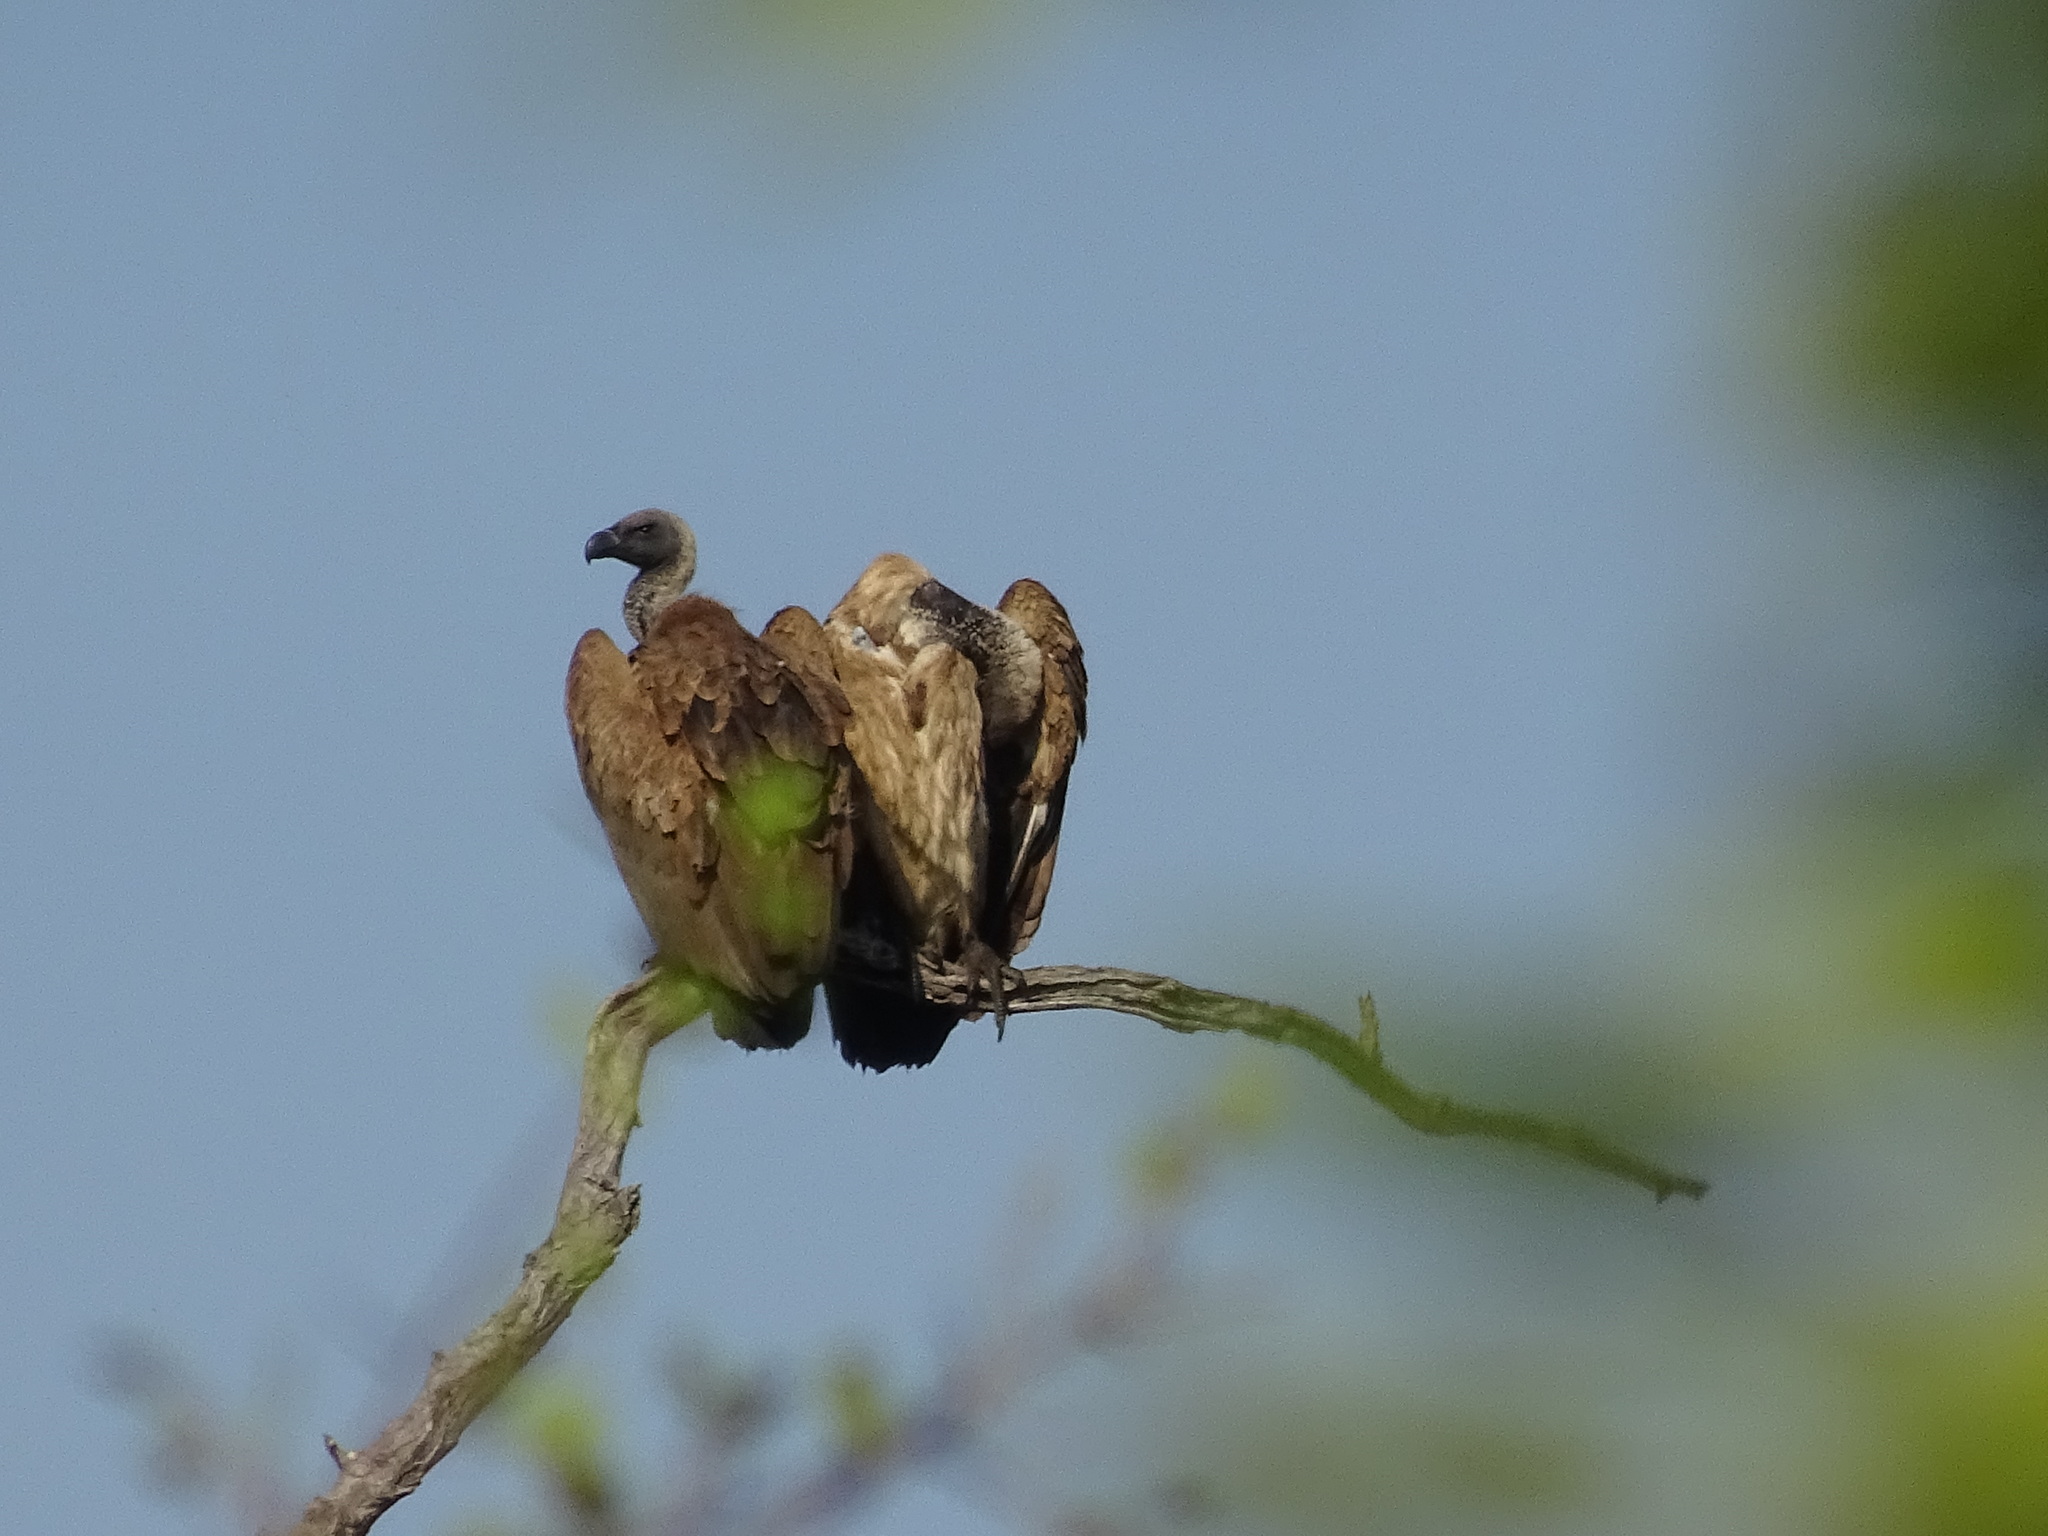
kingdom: Animalia
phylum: Chordata
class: Aves
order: Accipitriformes
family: Accipitridae
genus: Gyps
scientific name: Gyps africanus
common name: White-backed vulture
